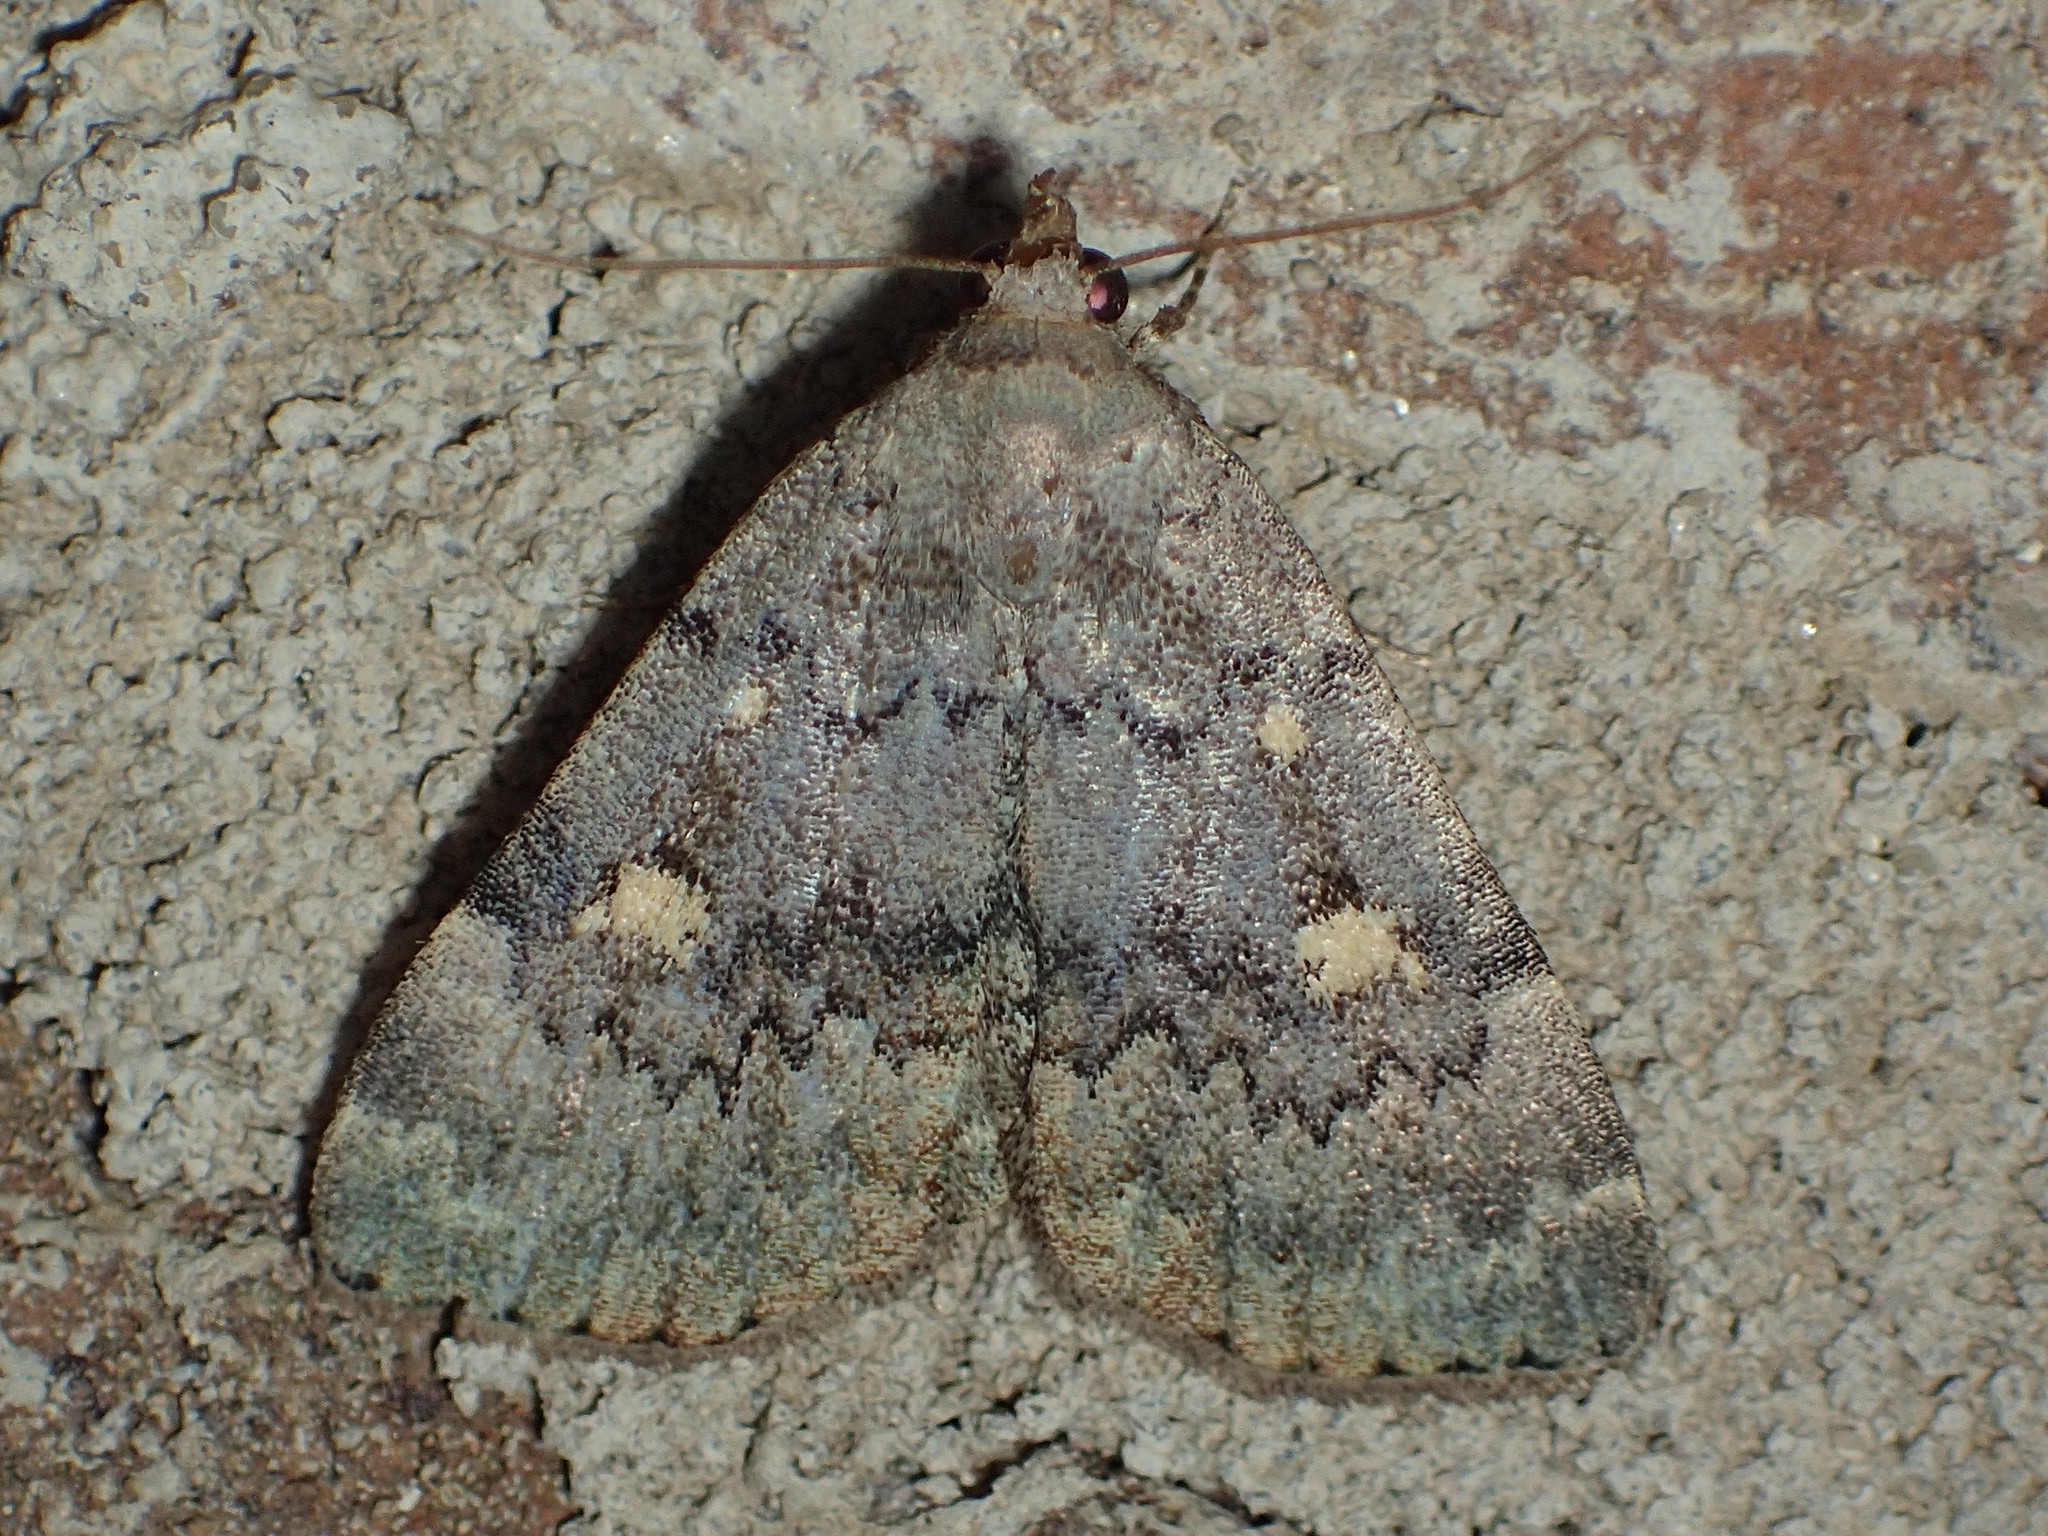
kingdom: Animalia
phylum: Arthropoda
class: Insecta
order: Lepidoptera
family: Erebidae
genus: Idia
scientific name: Idia aemula
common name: Common idia moth
